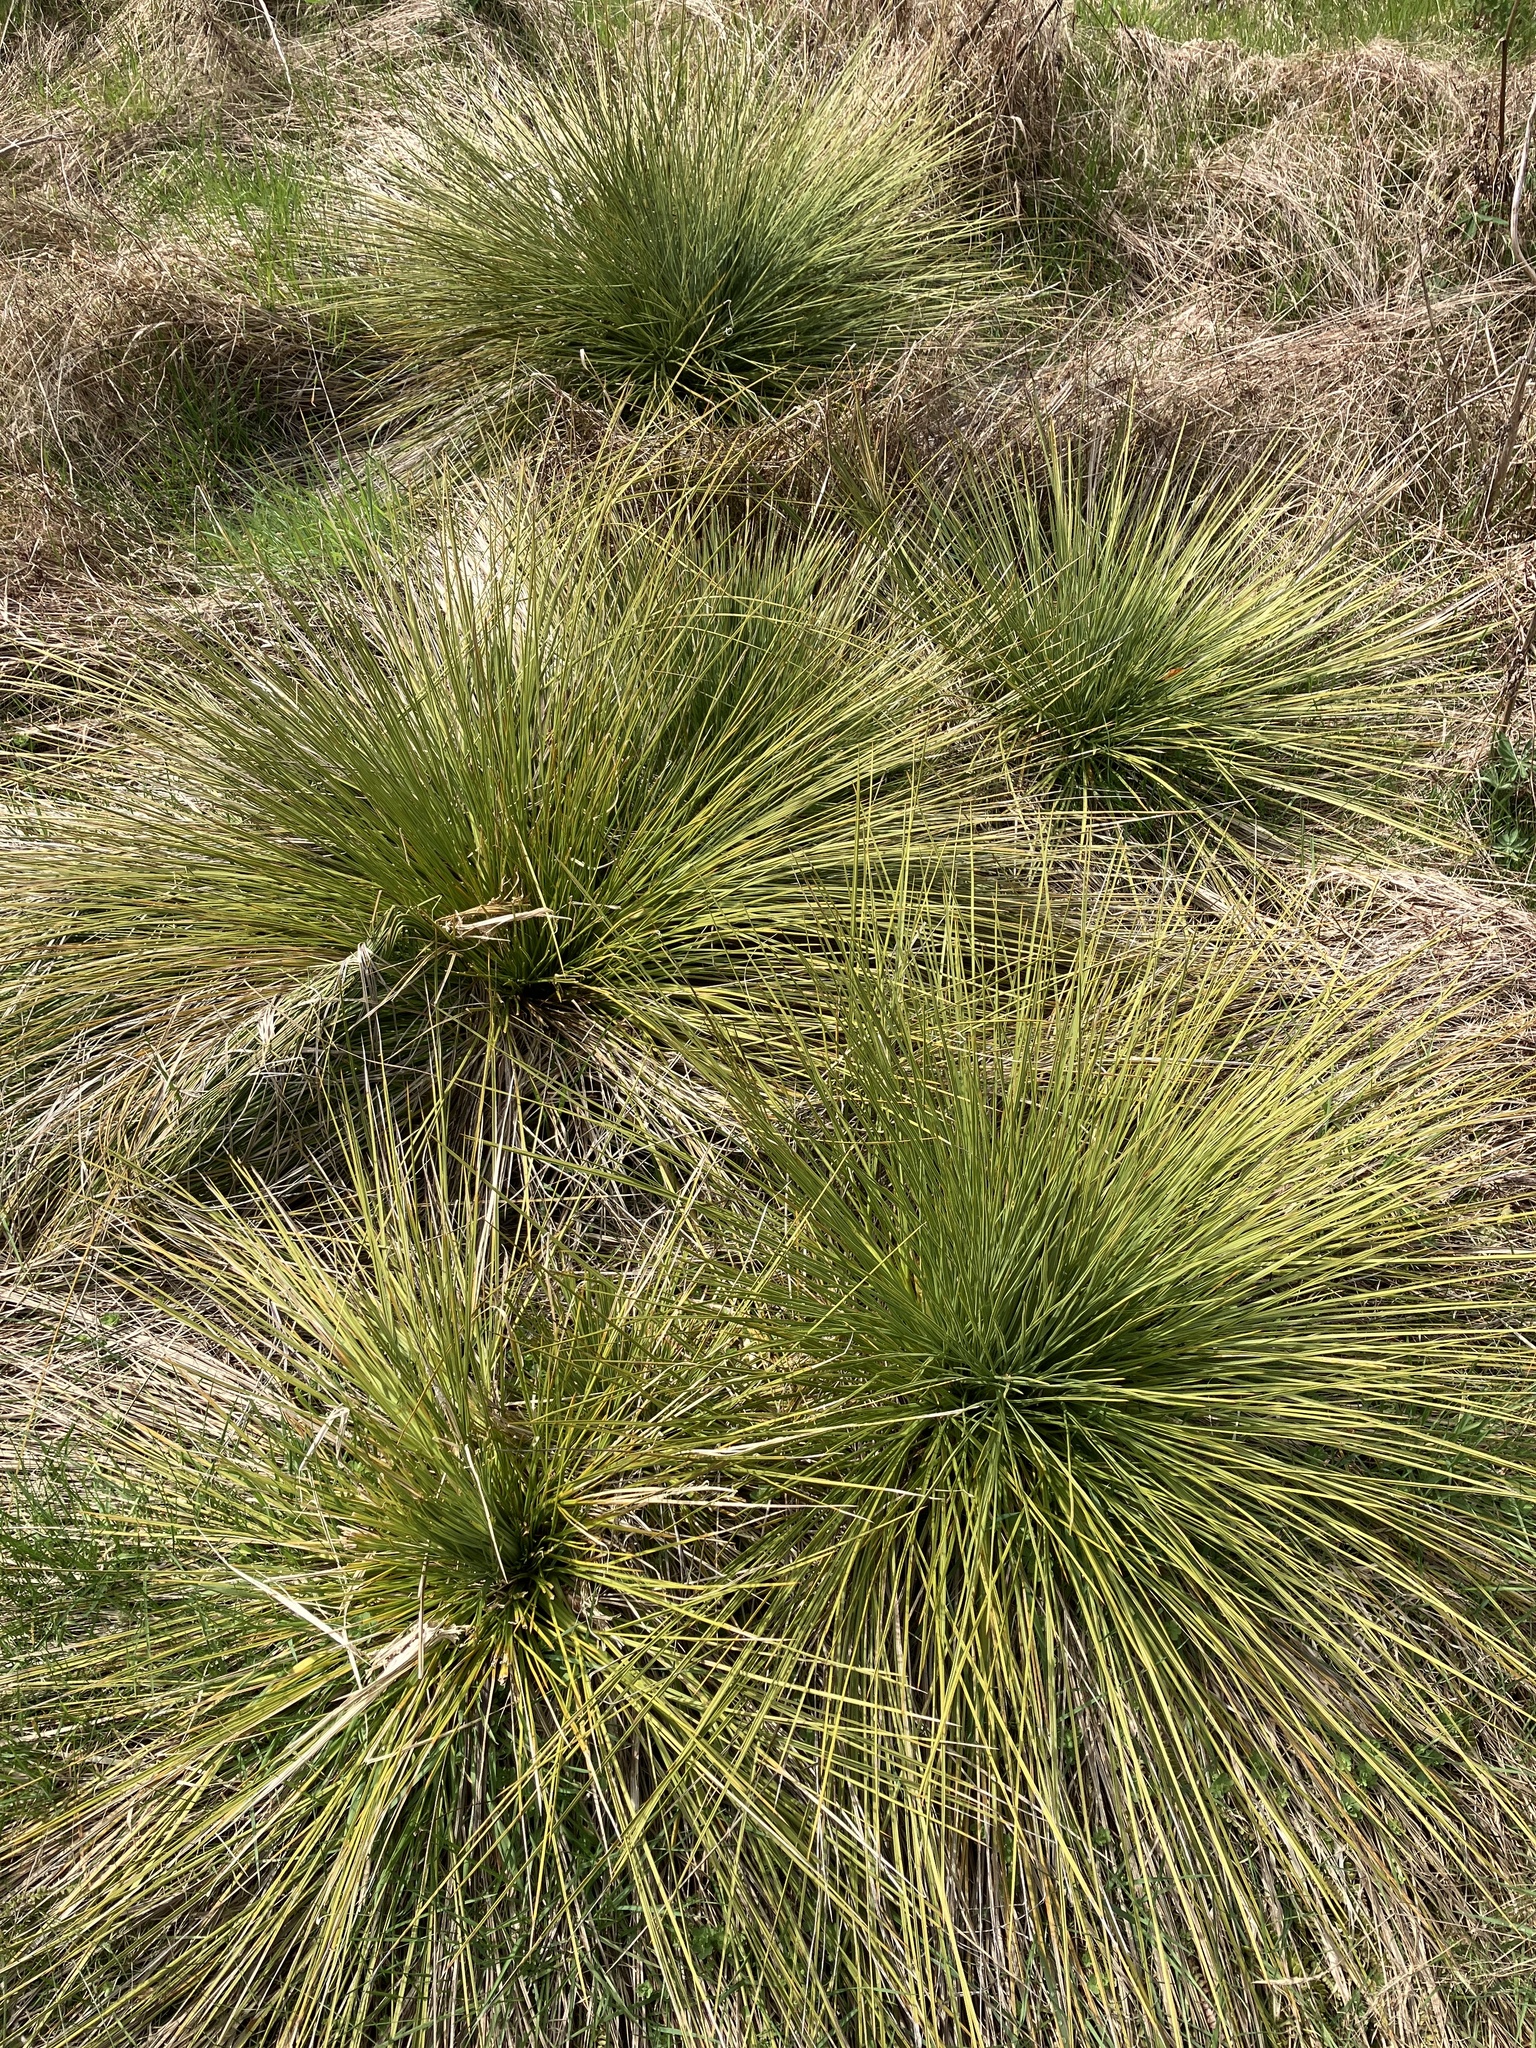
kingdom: Plantae
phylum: Tracheophyta
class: Magnoliopsida
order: Apiales
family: Apiaceae
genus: Aciphylla
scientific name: Aciphylla subflabellata
